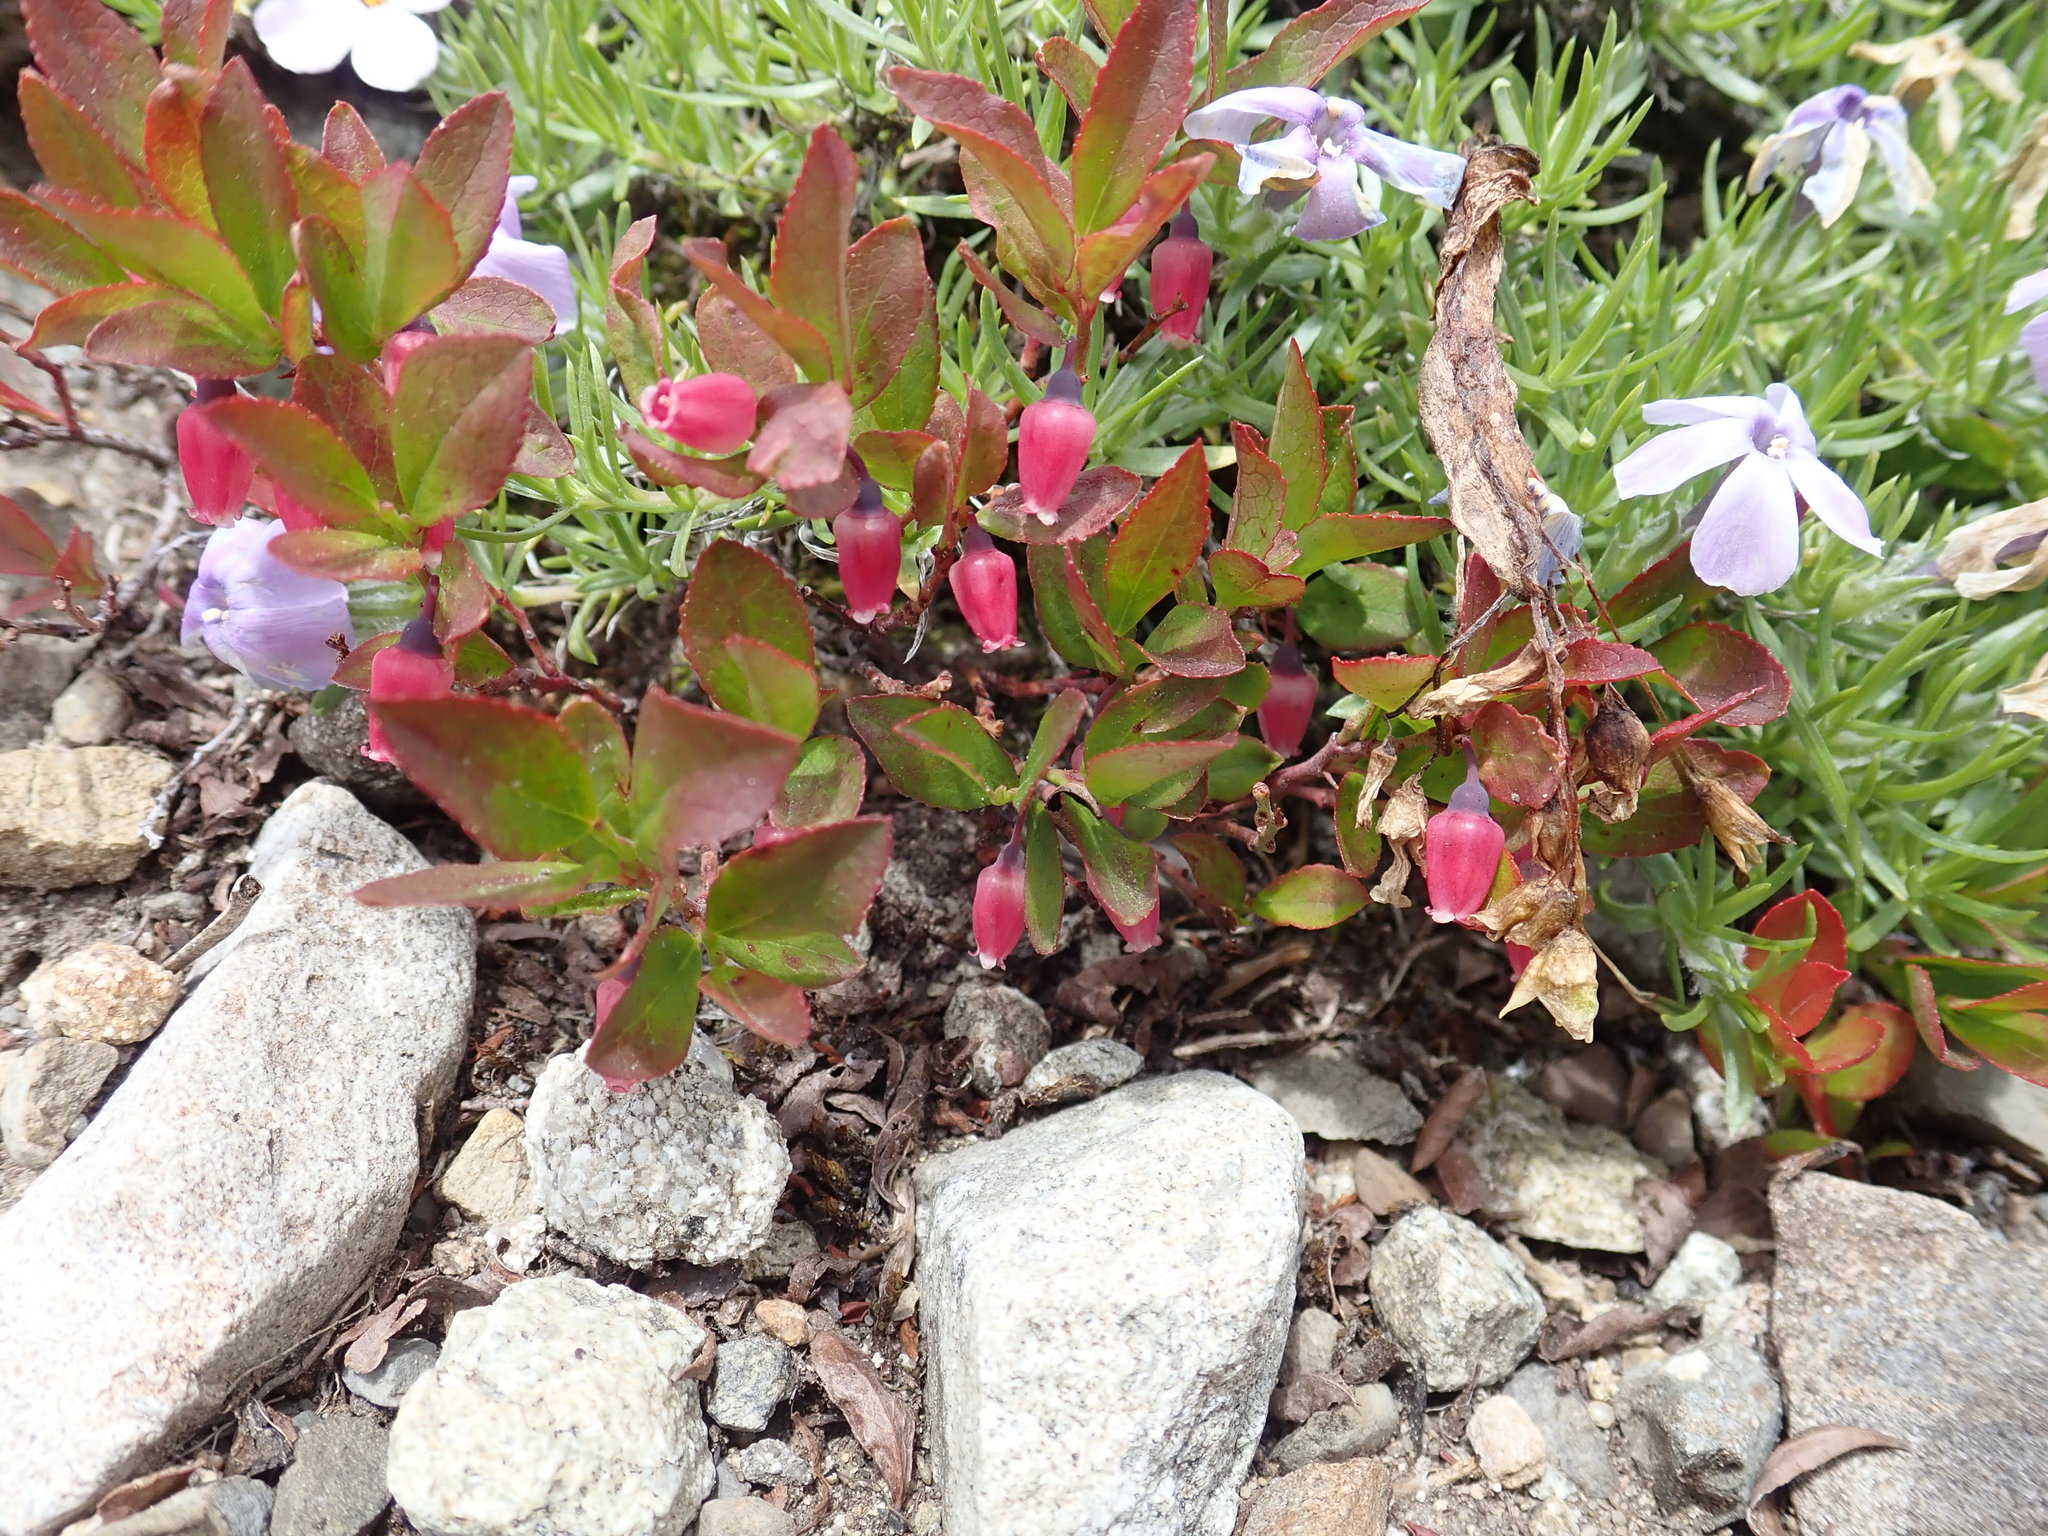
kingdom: Plantae
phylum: Tracheophyta
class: Magnoliopsida
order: Ericales
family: Ericaceae
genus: Vaccinium
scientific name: Vaccinium cespitosum
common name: Dwarf bilberry
